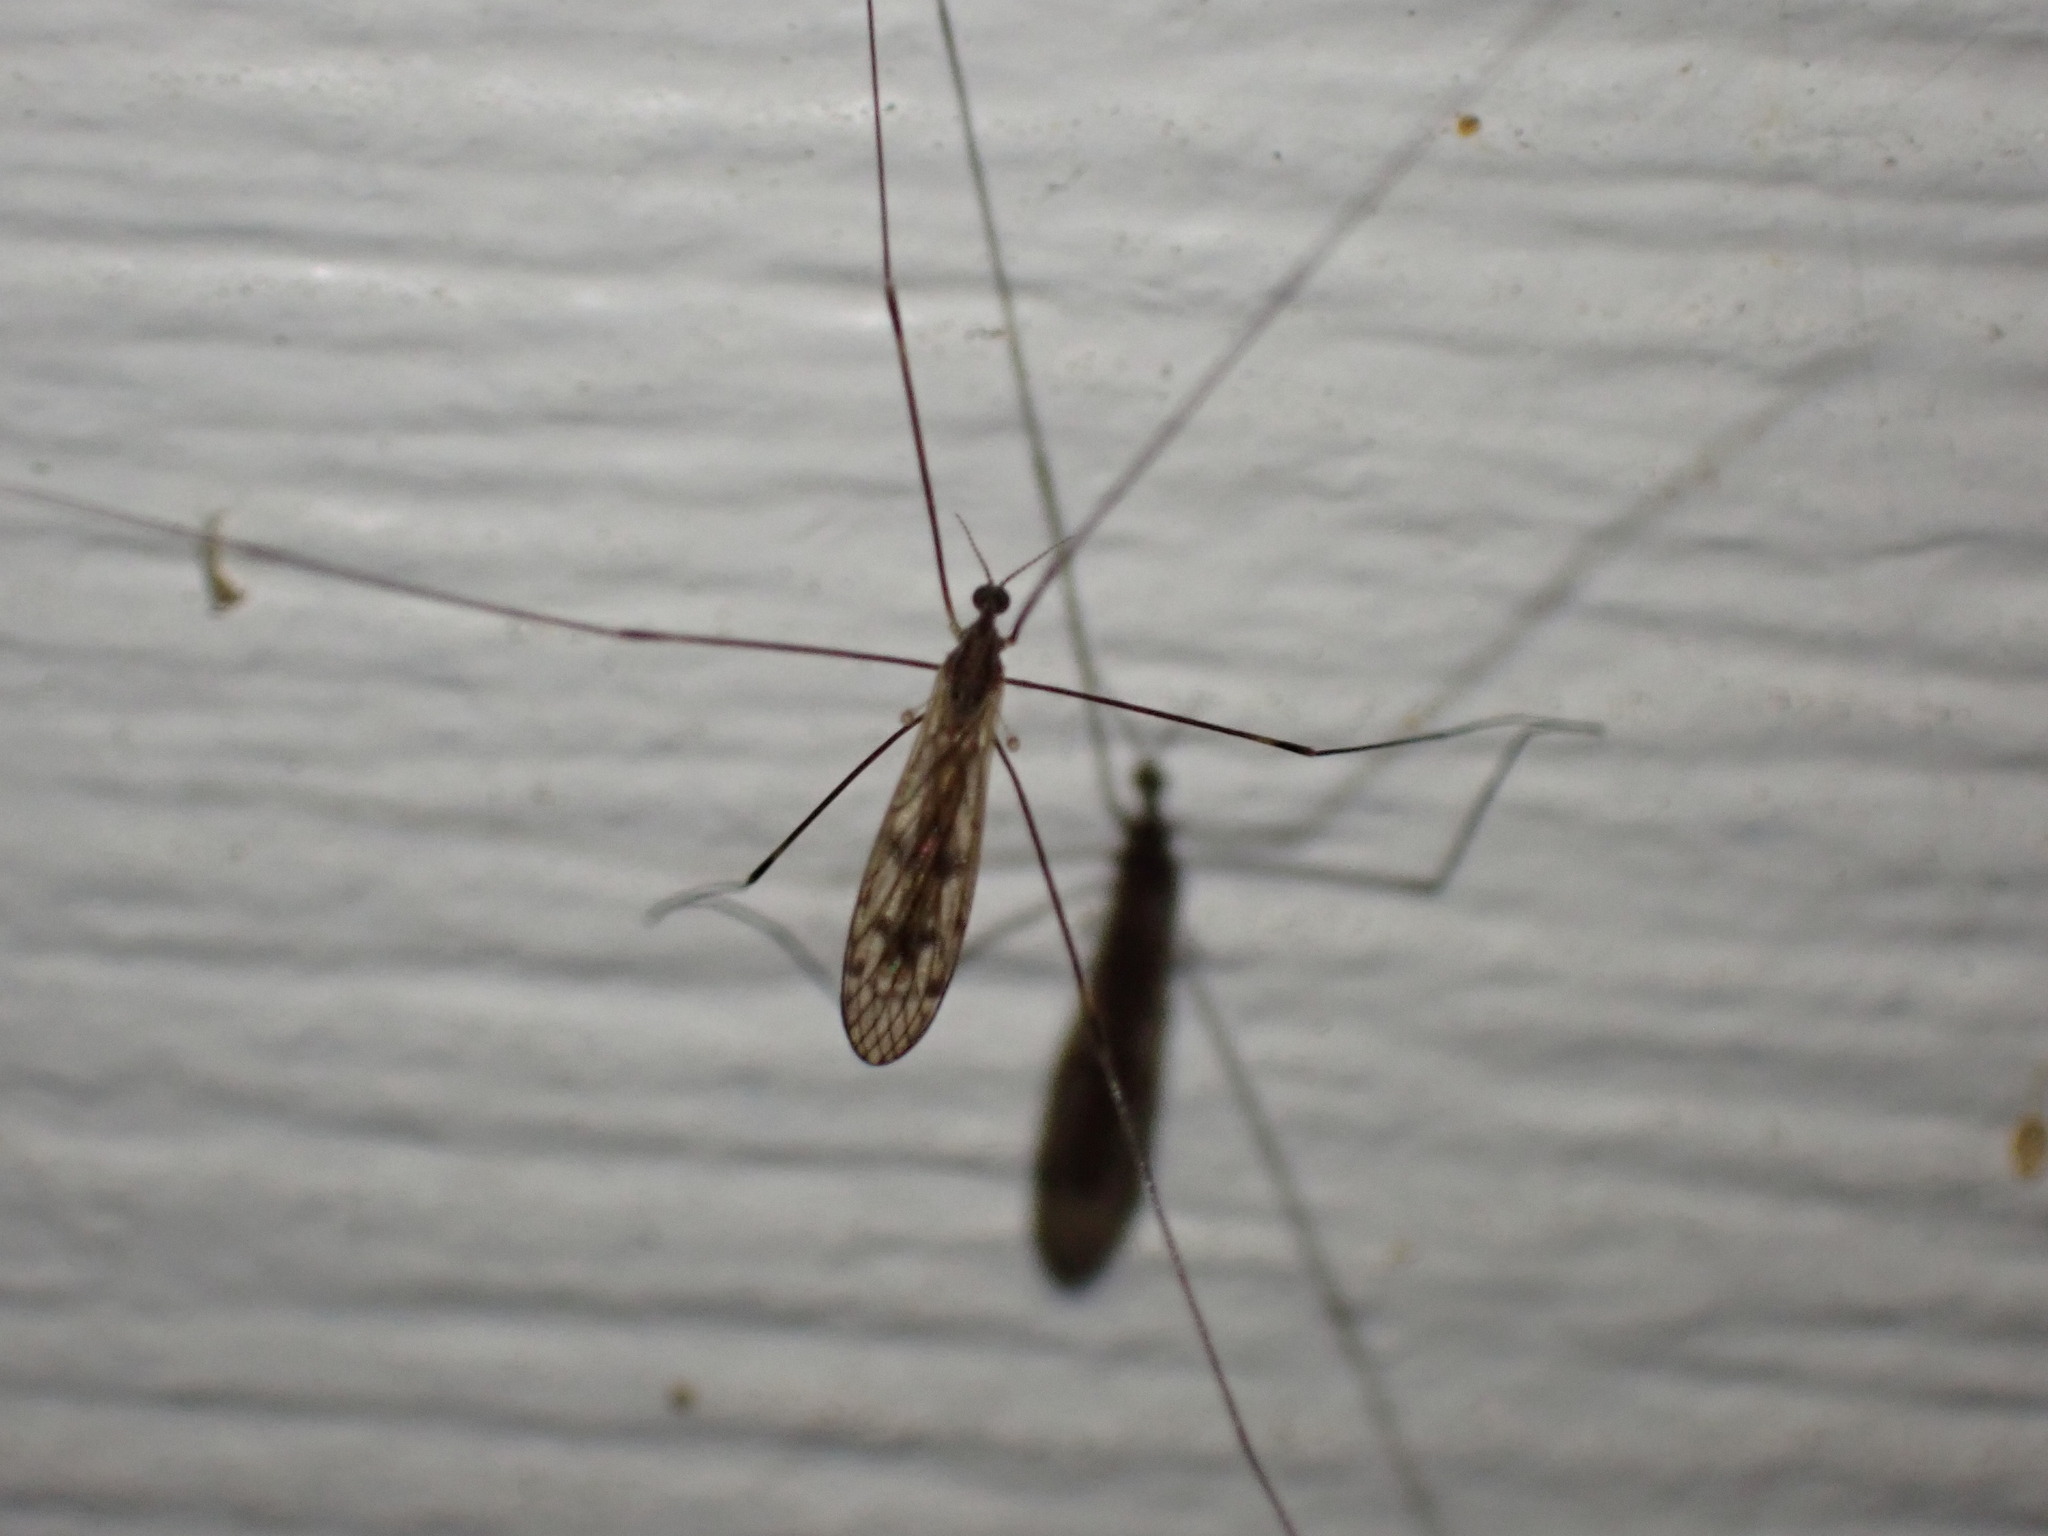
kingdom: Animalia
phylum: Arthropoda
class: Insecta
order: Diptera
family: Limoniidae
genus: Metalimnobia
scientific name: Metalimnobia novaeangliae
